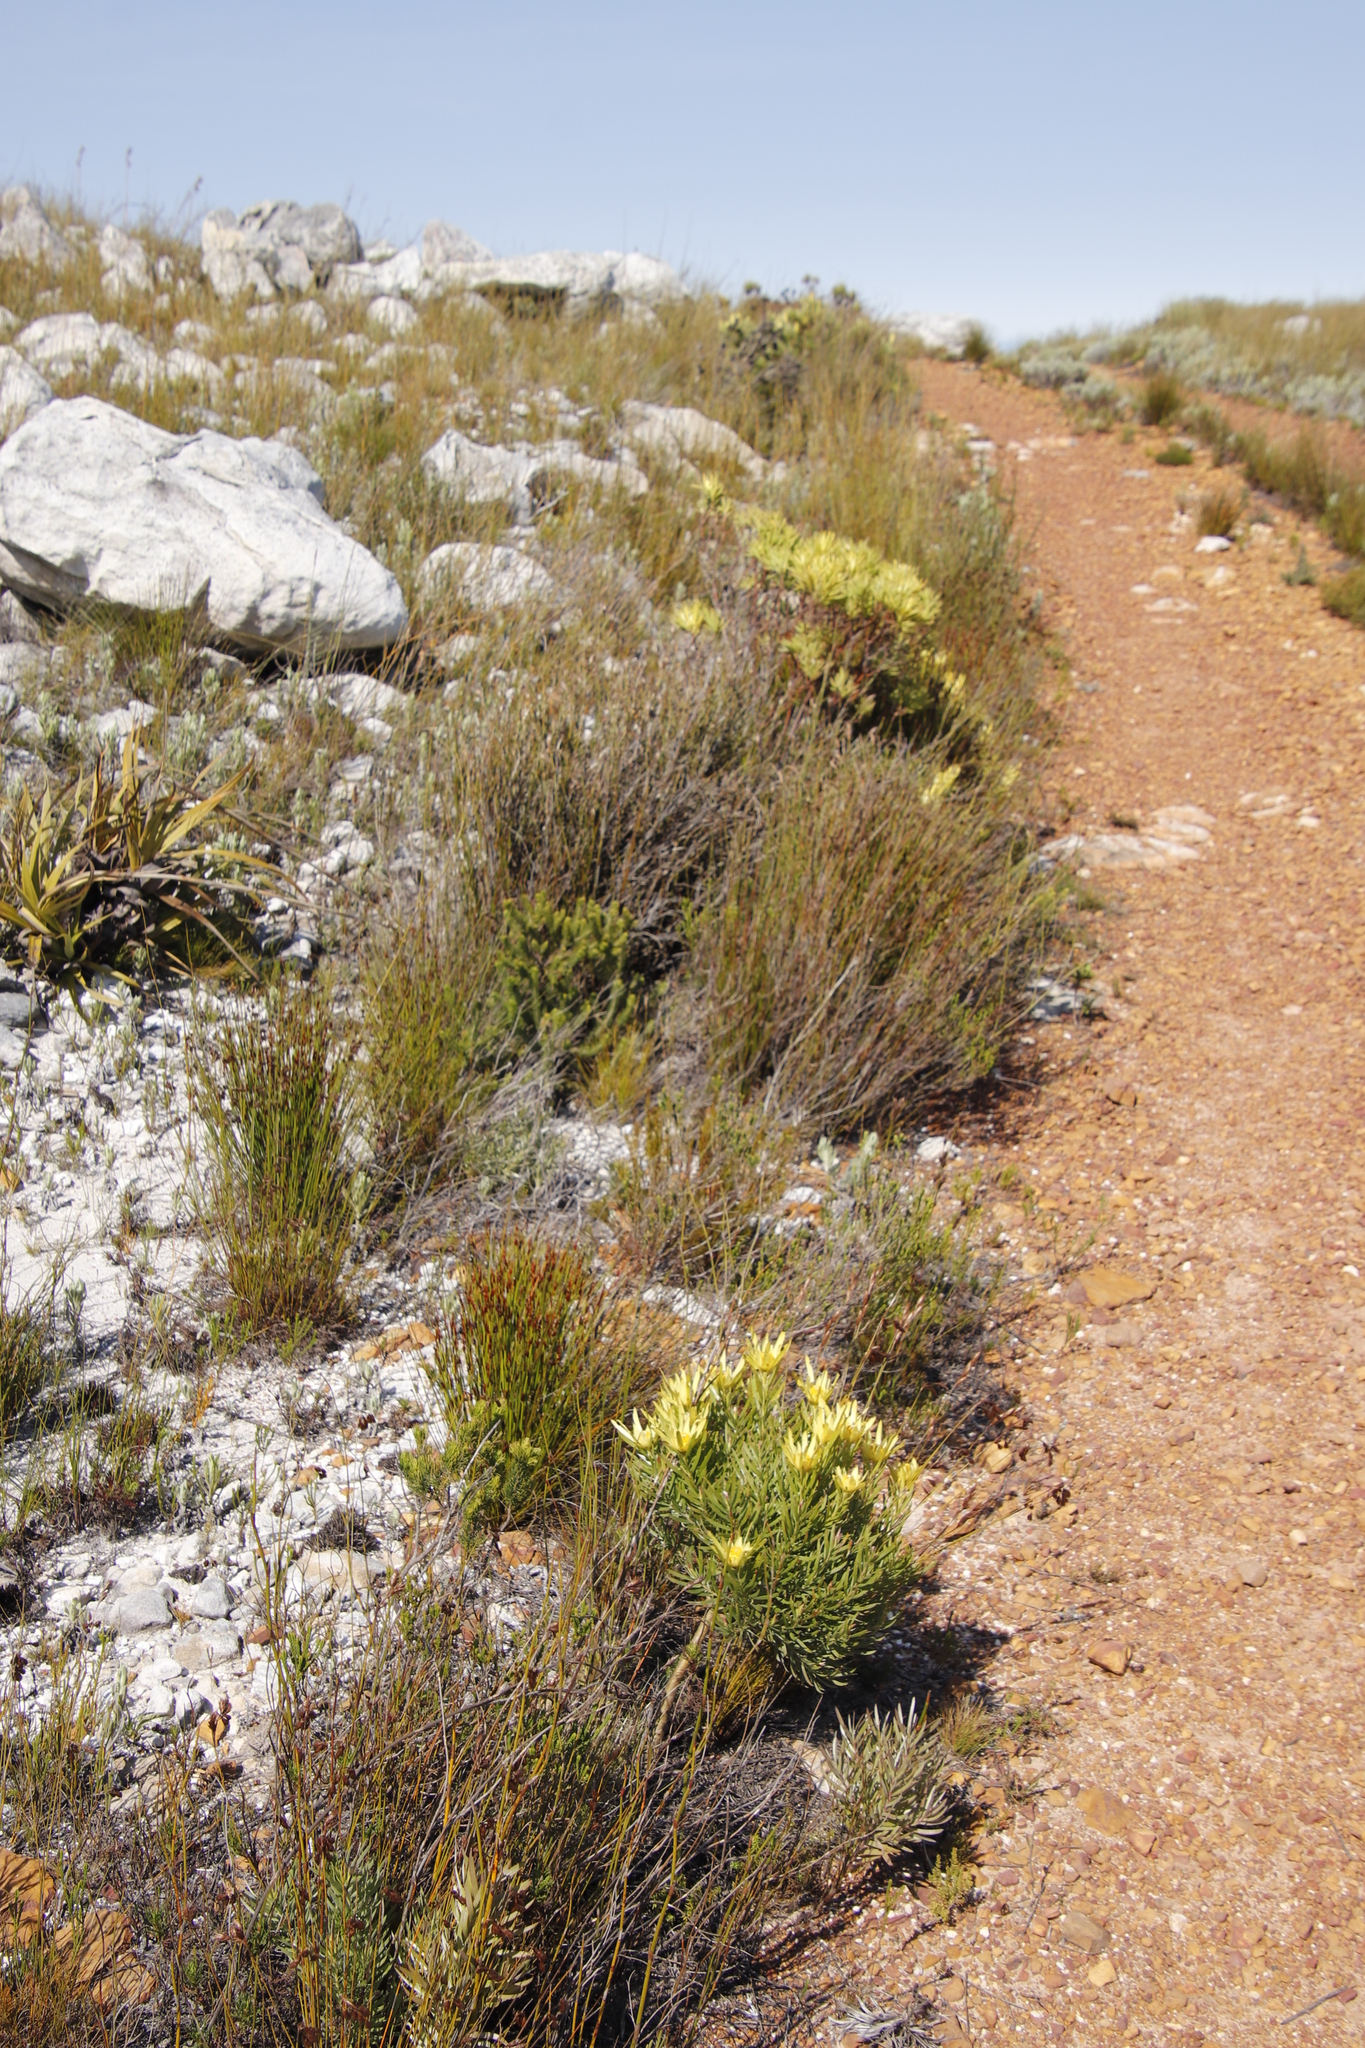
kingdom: Plantae
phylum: Tracheophyta
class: Magnoliopsida
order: Proteales
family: Proteaceae
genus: Leucadendron
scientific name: Leucadendron
